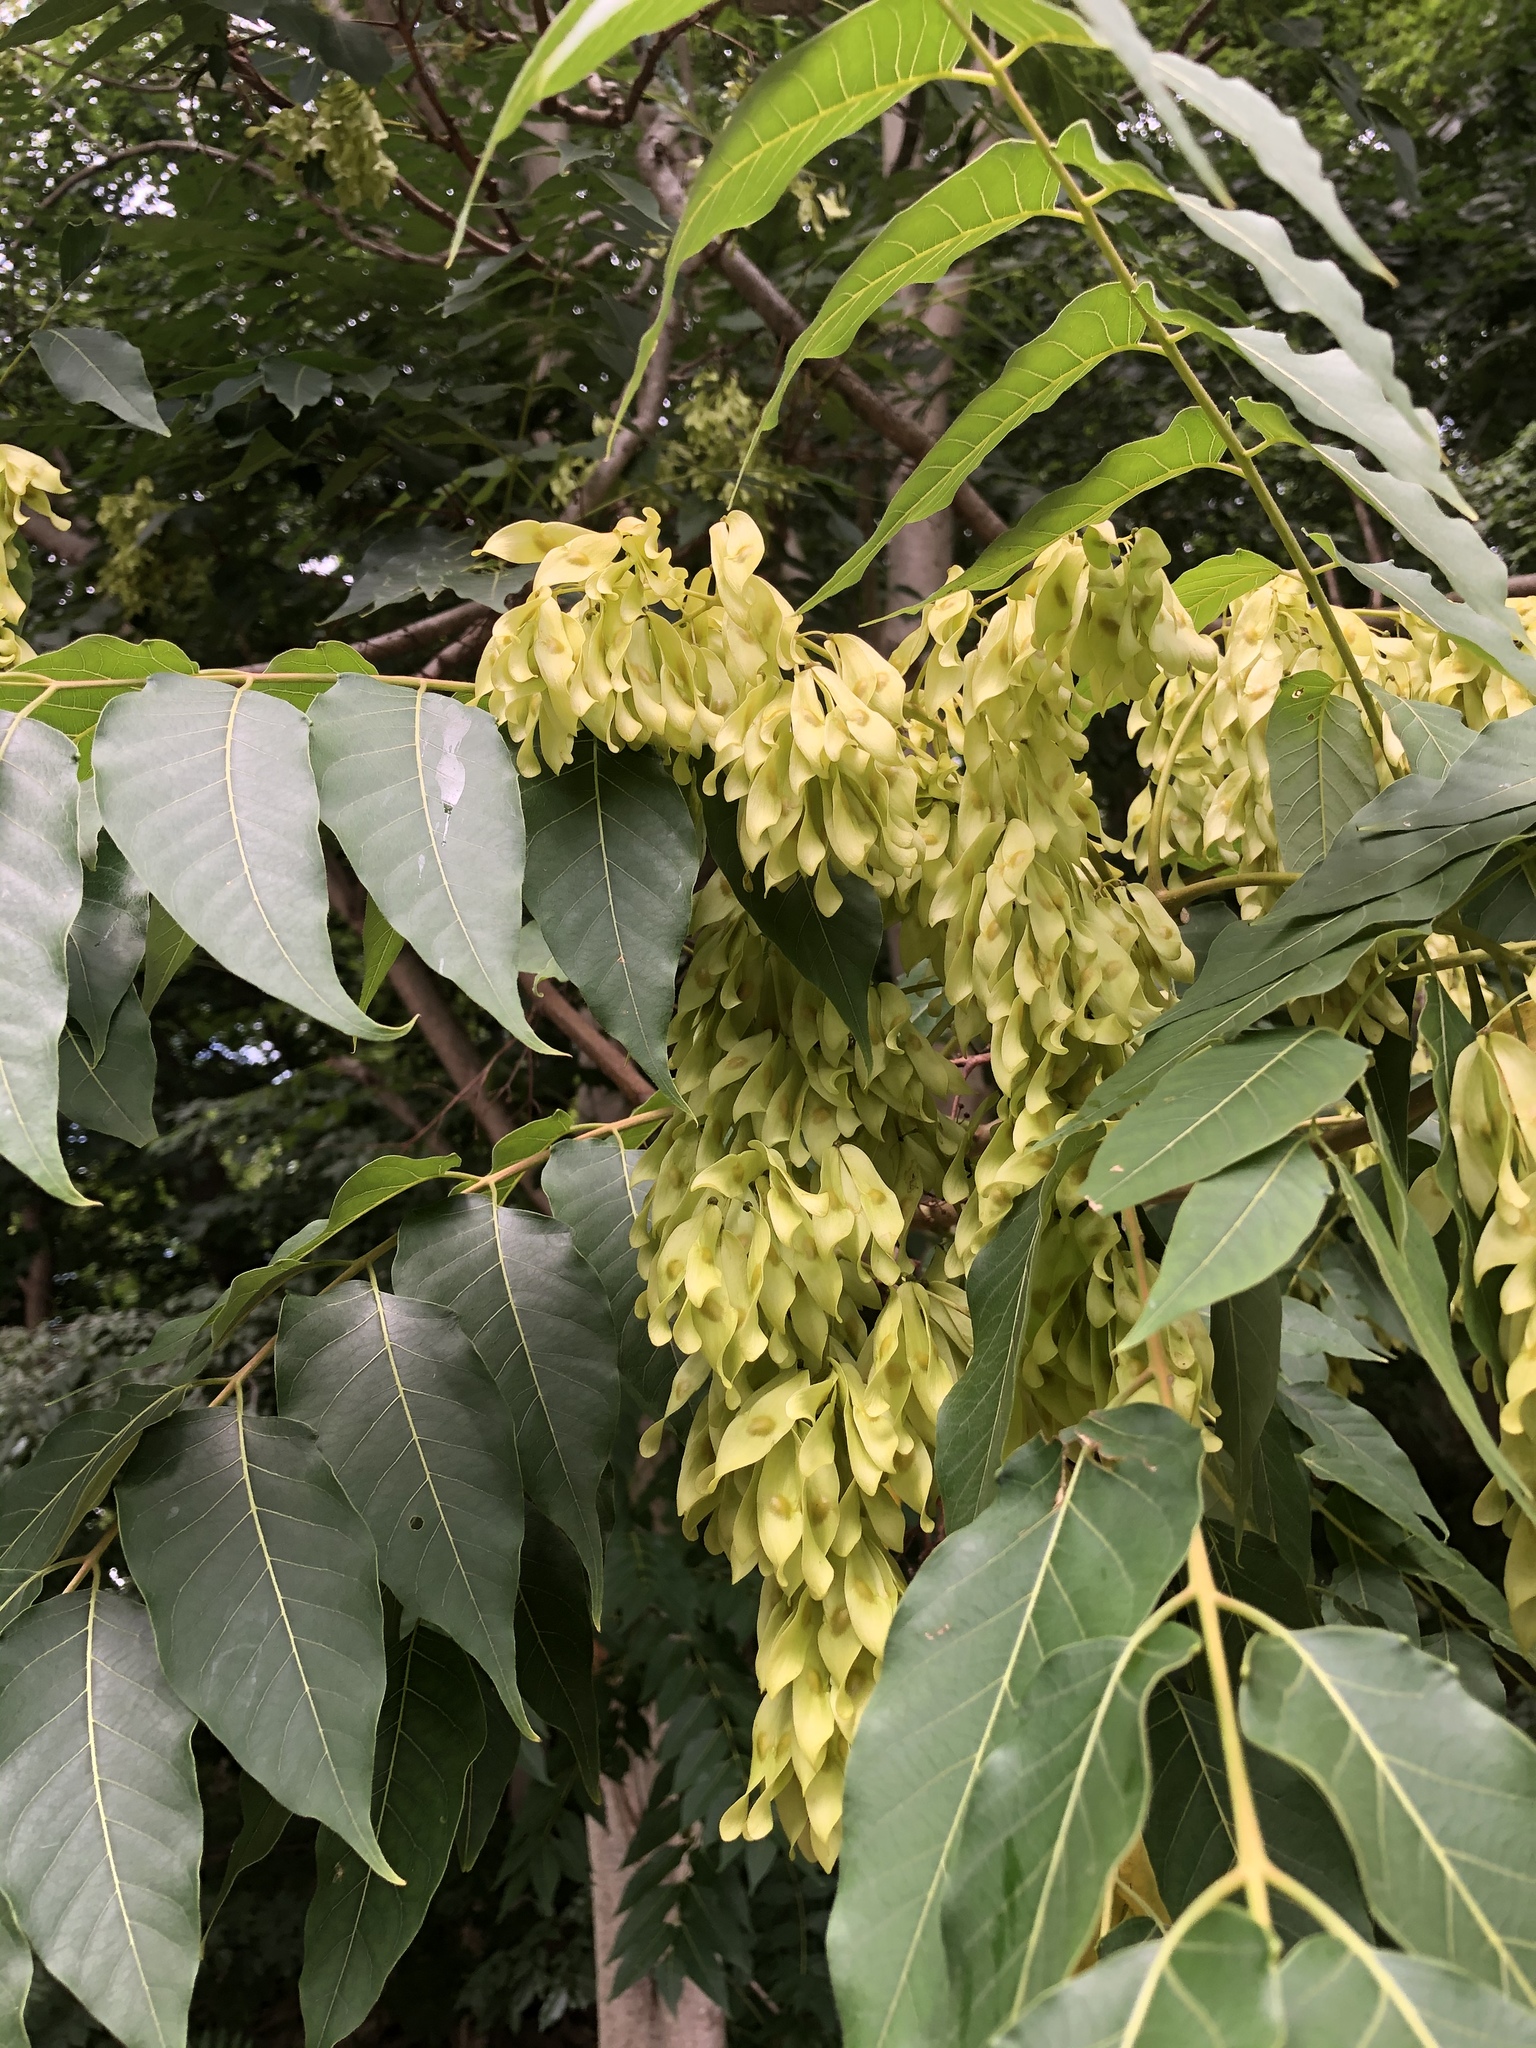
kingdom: Plantae
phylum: Tracheophyta
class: Magnoliopsida
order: Sapindales
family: Simaroubaceae
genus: Ailanthus
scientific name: Ailanthus altissima
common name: Tree-of-heaven
